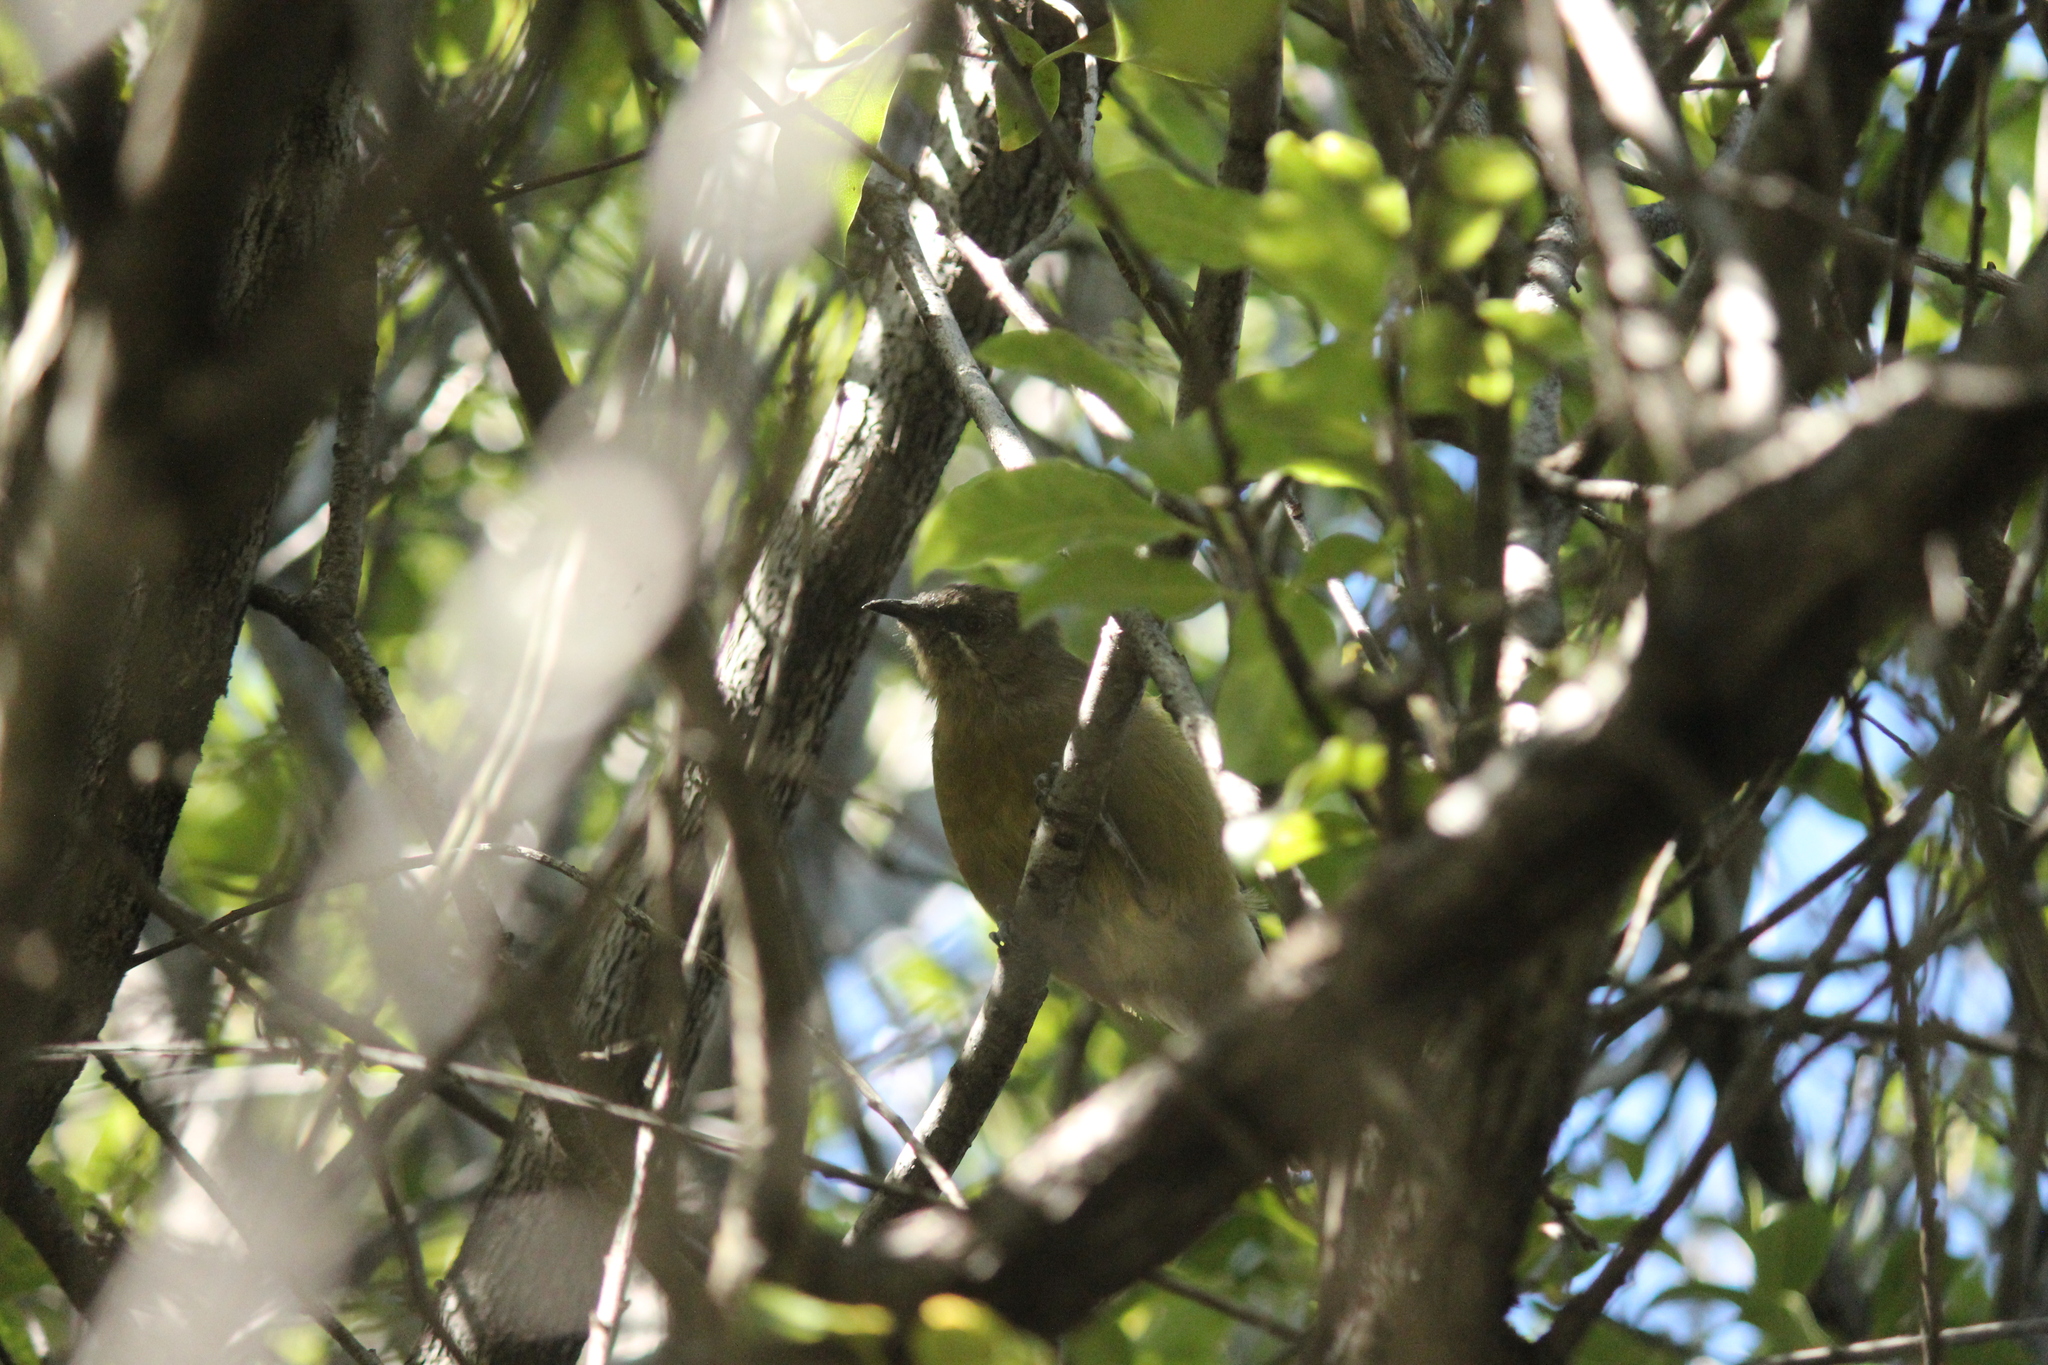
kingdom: Animalia
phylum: Chordata
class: Aves
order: Passeriformes
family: Meliphagidae
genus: Anthornis
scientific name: Anthornis melanura
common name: New zealand bellbird
